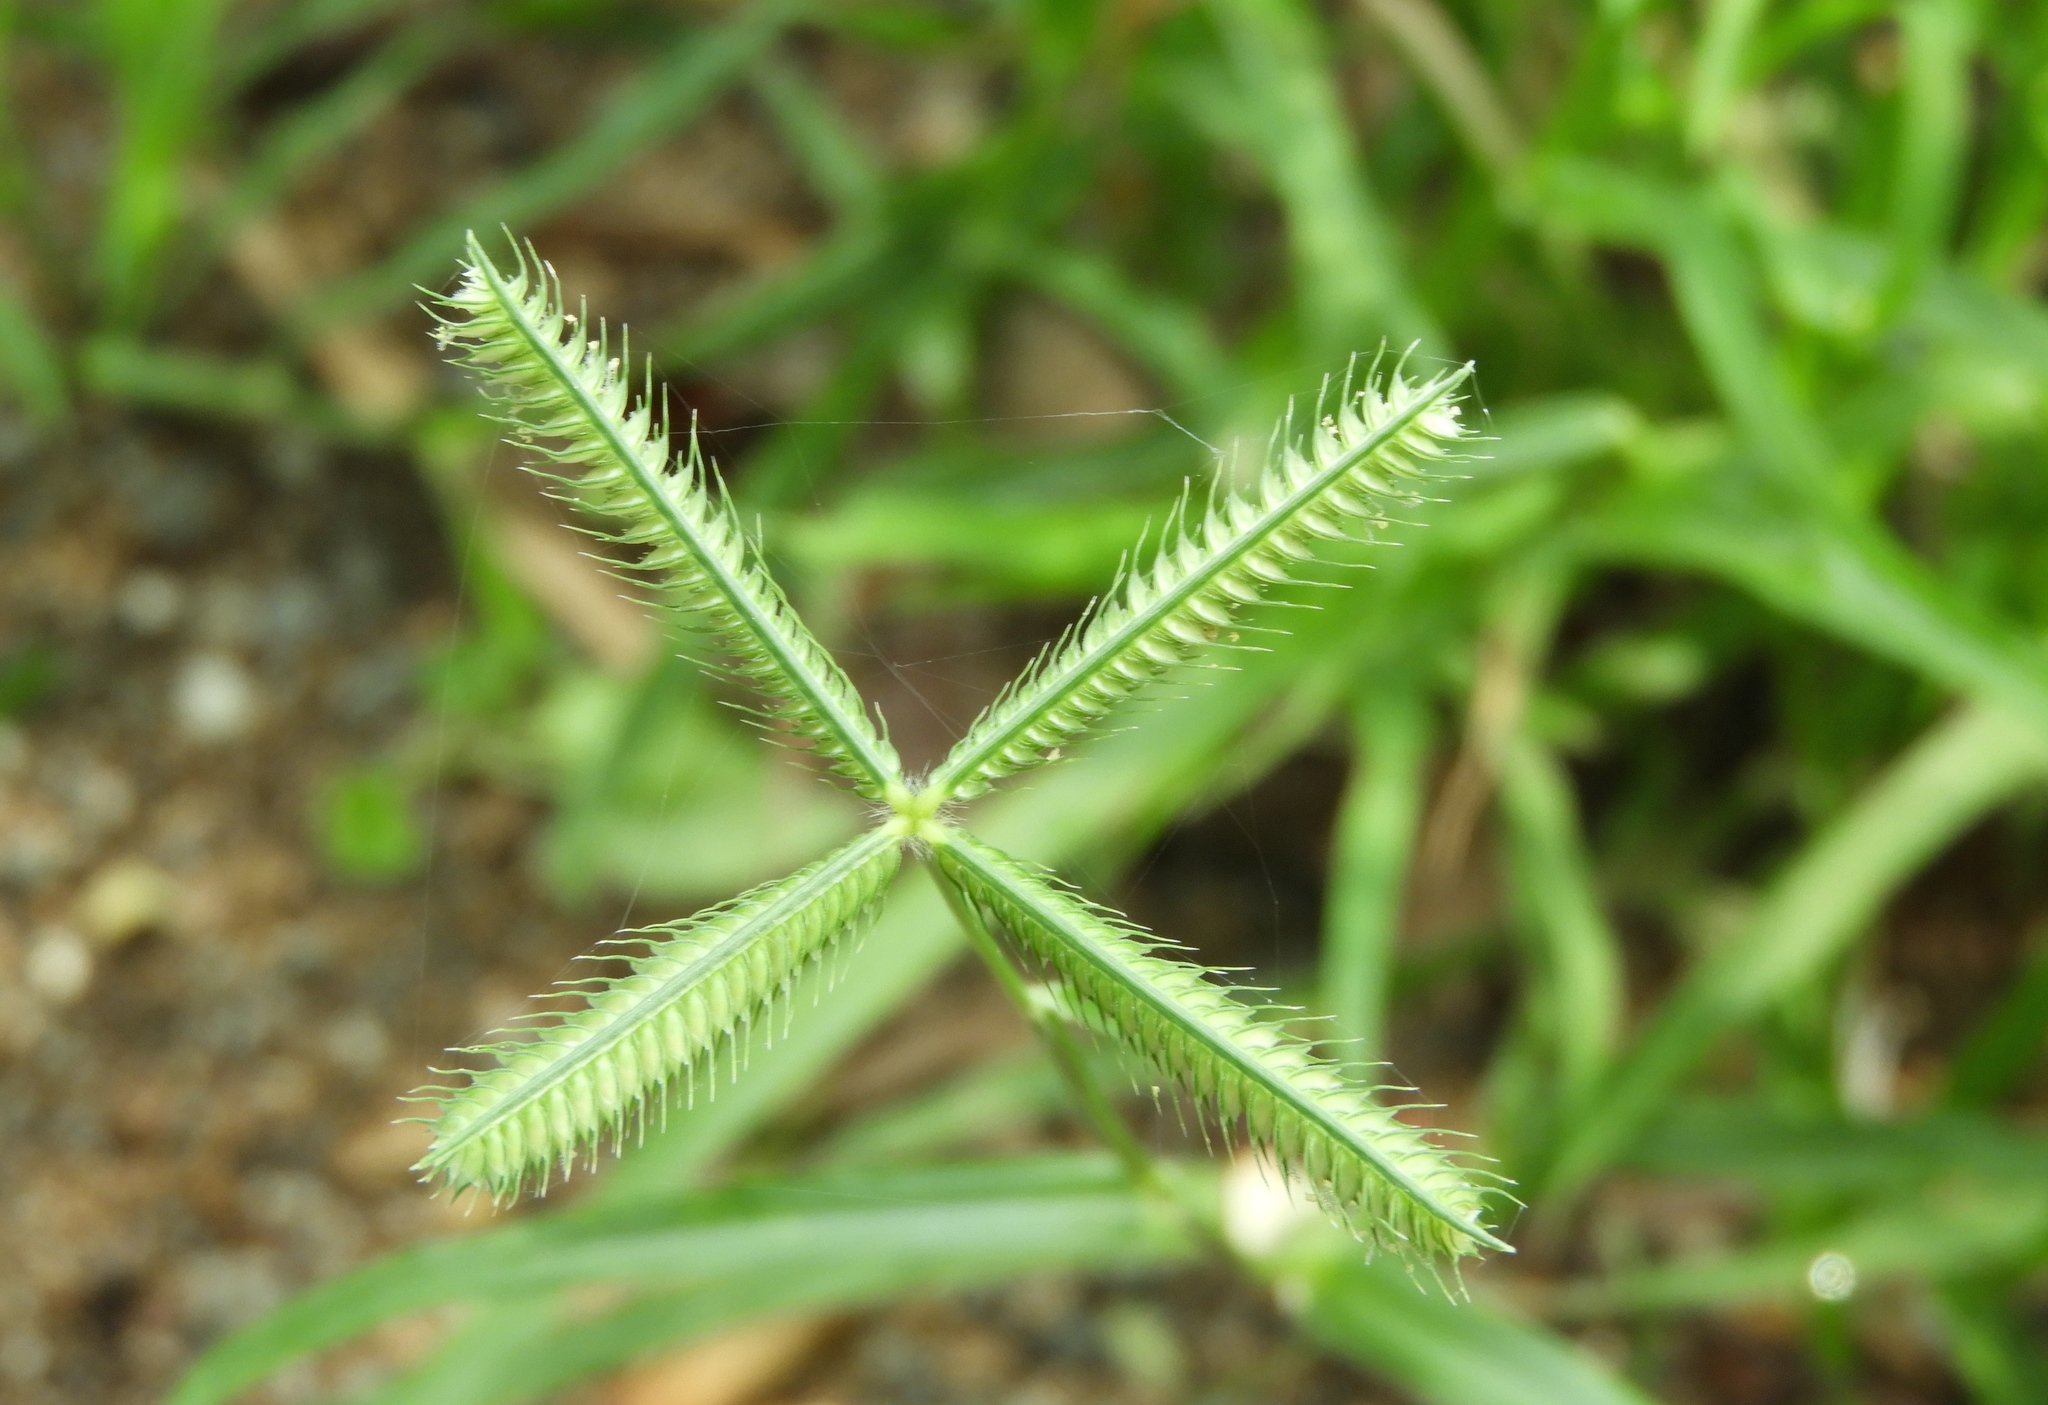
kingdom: Plantae
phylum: Tracheophyta
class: Liliopsida
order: Poales
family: Poaceae
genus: Dactyloctenium
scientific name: Dactyloctenium aegyptium
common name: Egyptian grass
